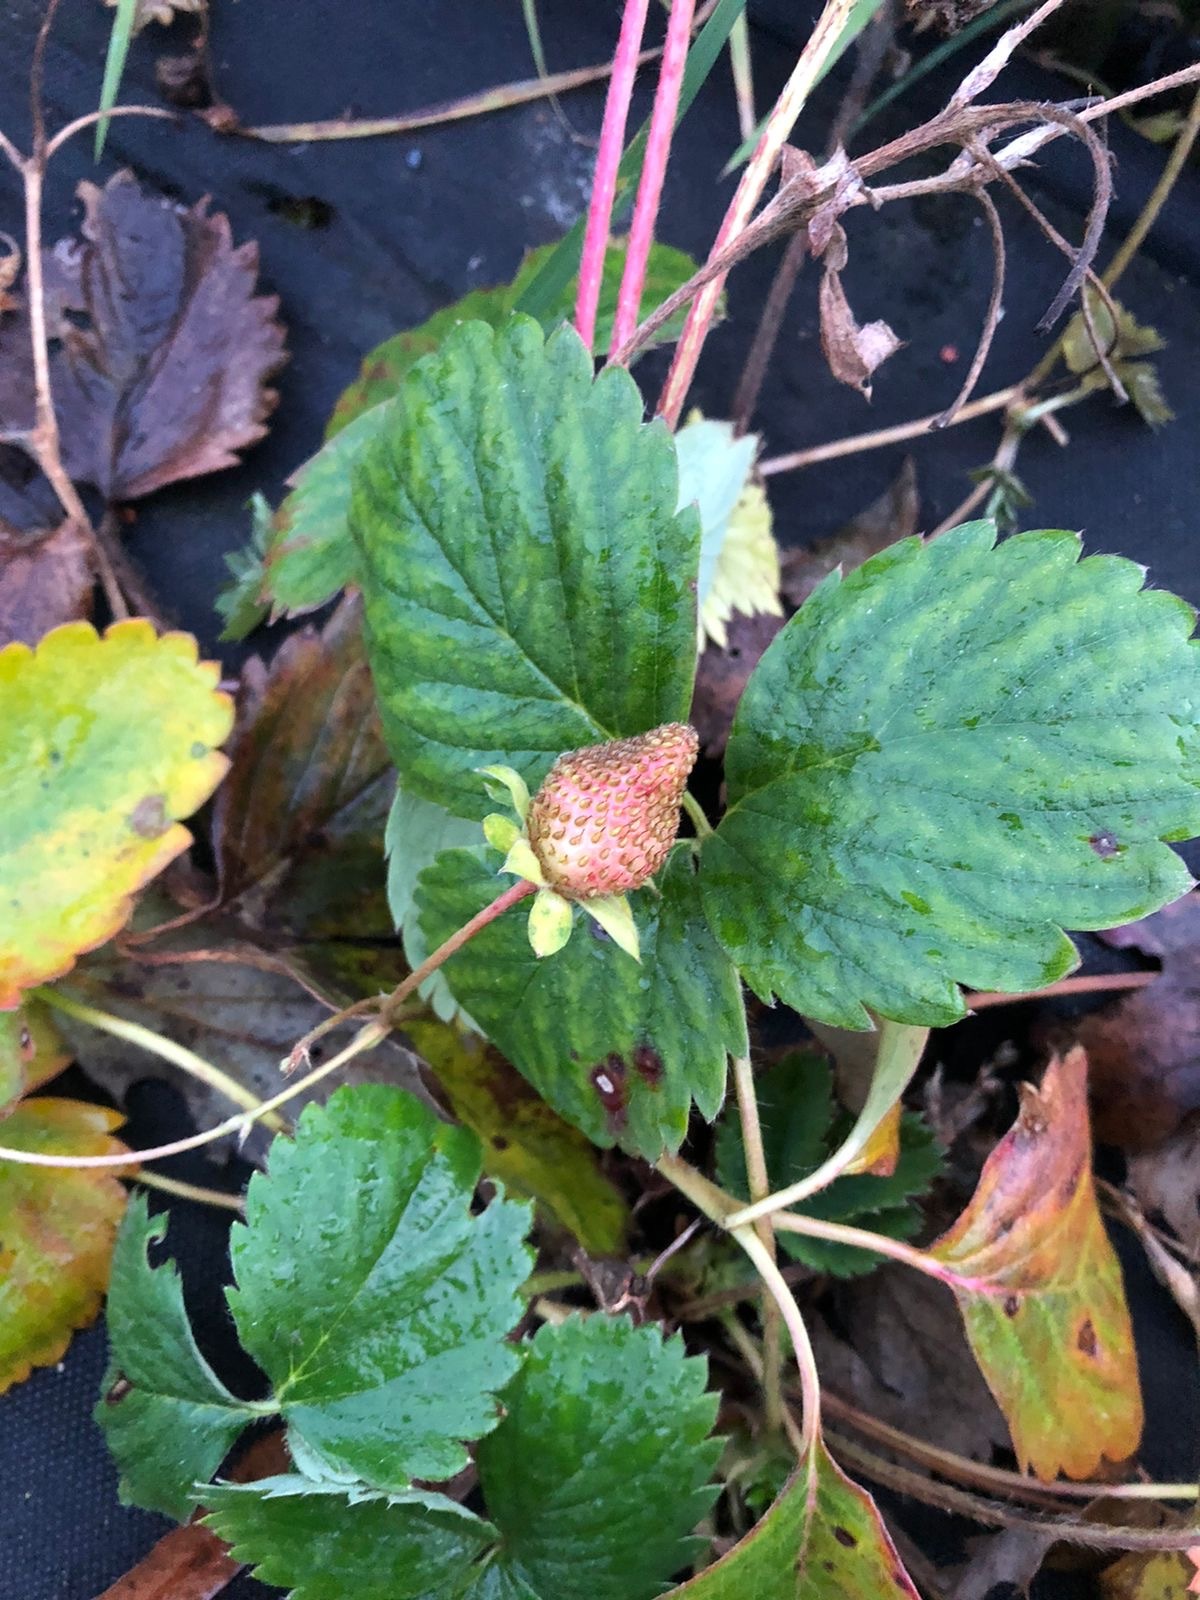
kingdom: Plantae
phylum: Tracheophyta
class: Magnoliopsida
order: Rosales
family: Rosaceae
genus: Fragaria
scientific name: Fragaria ananassa
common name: Garden strawberry
